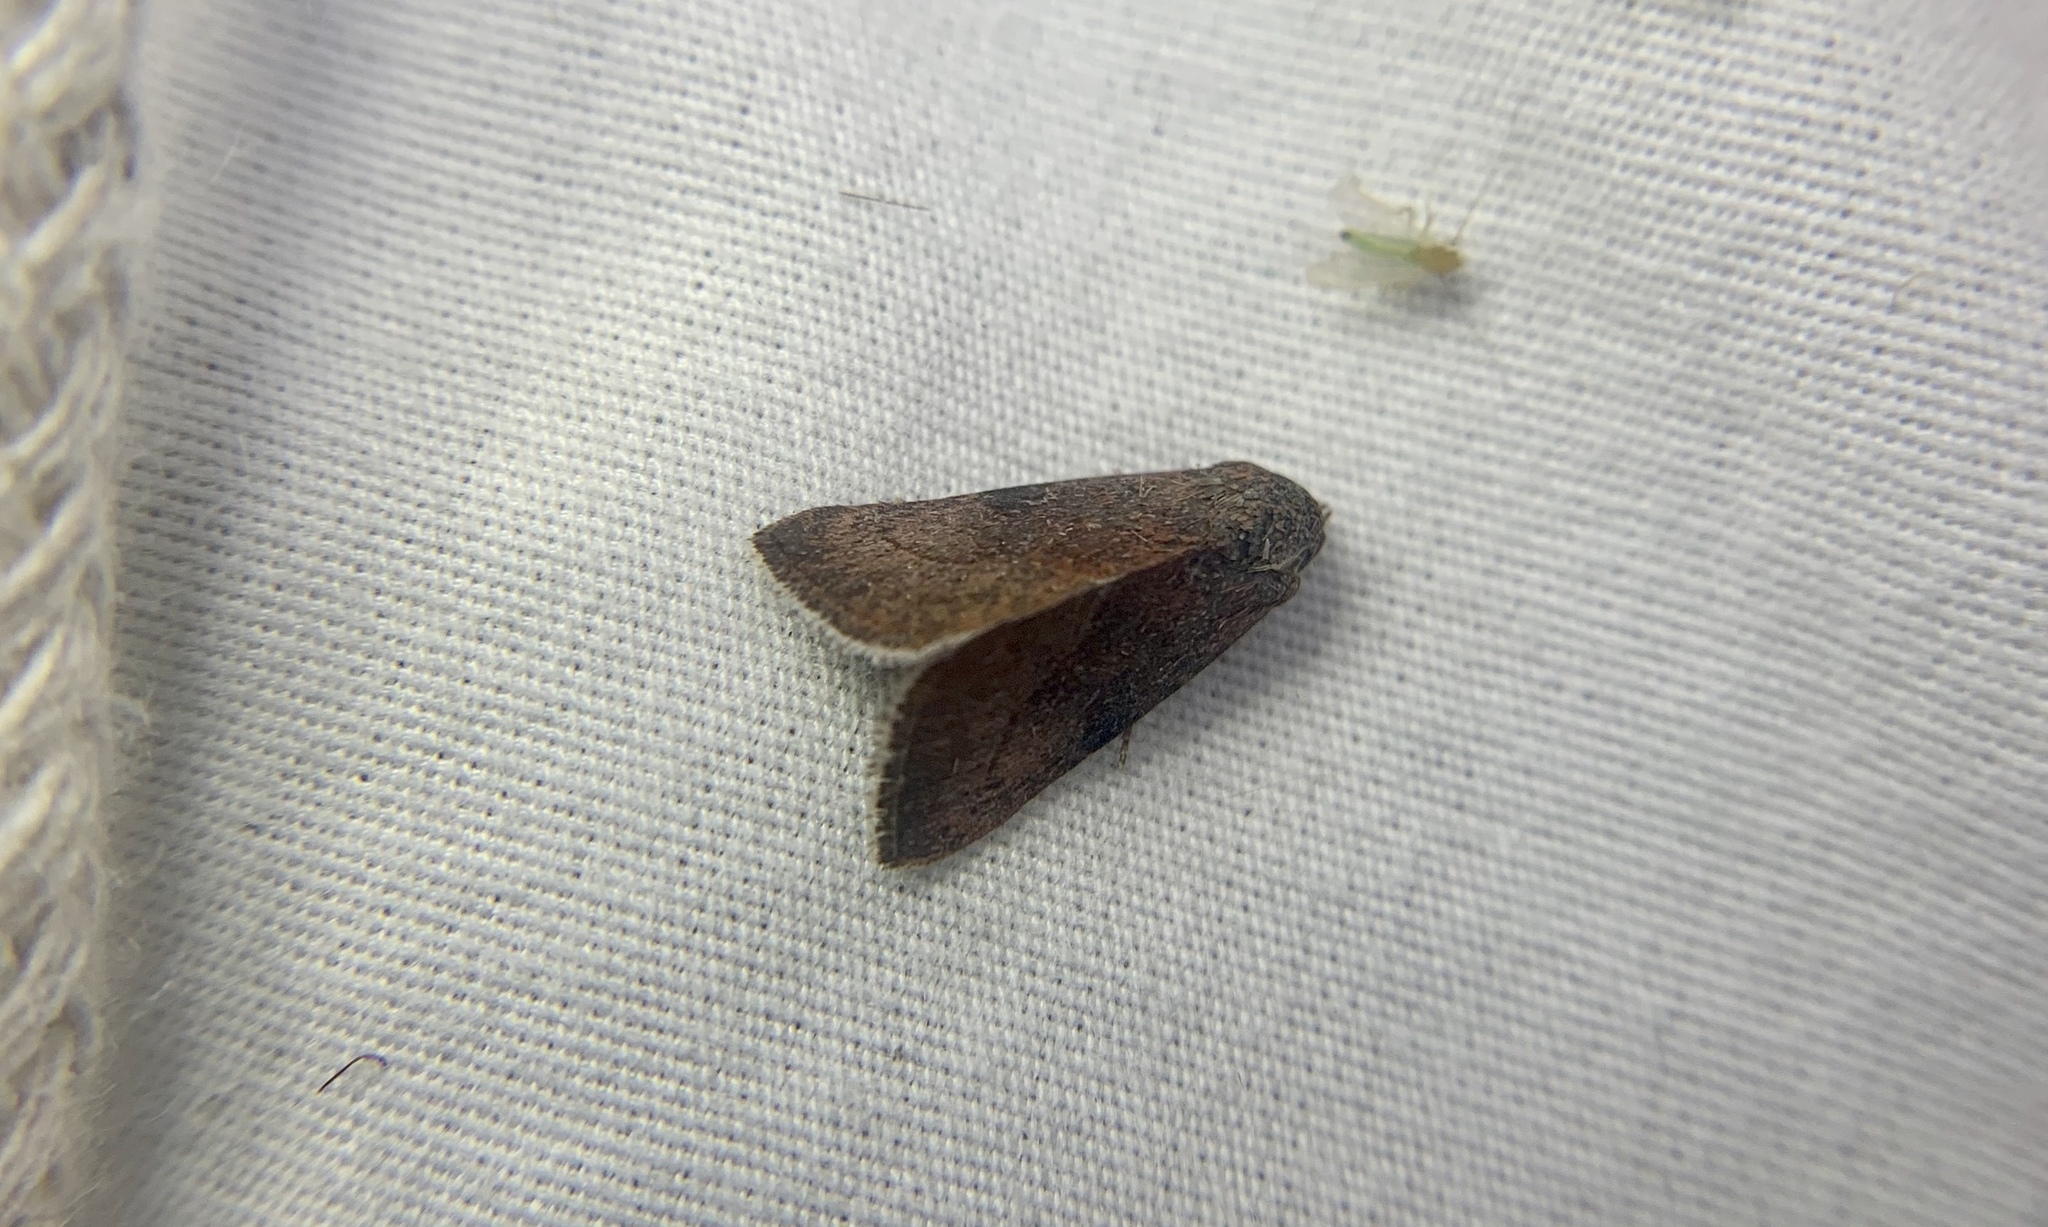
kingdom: Animalia
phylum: Arthropoda
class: Insecta
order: Lepidoptera
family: Noctuidae
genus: Galgula
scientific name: Galgula partita
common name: Wedgeling
